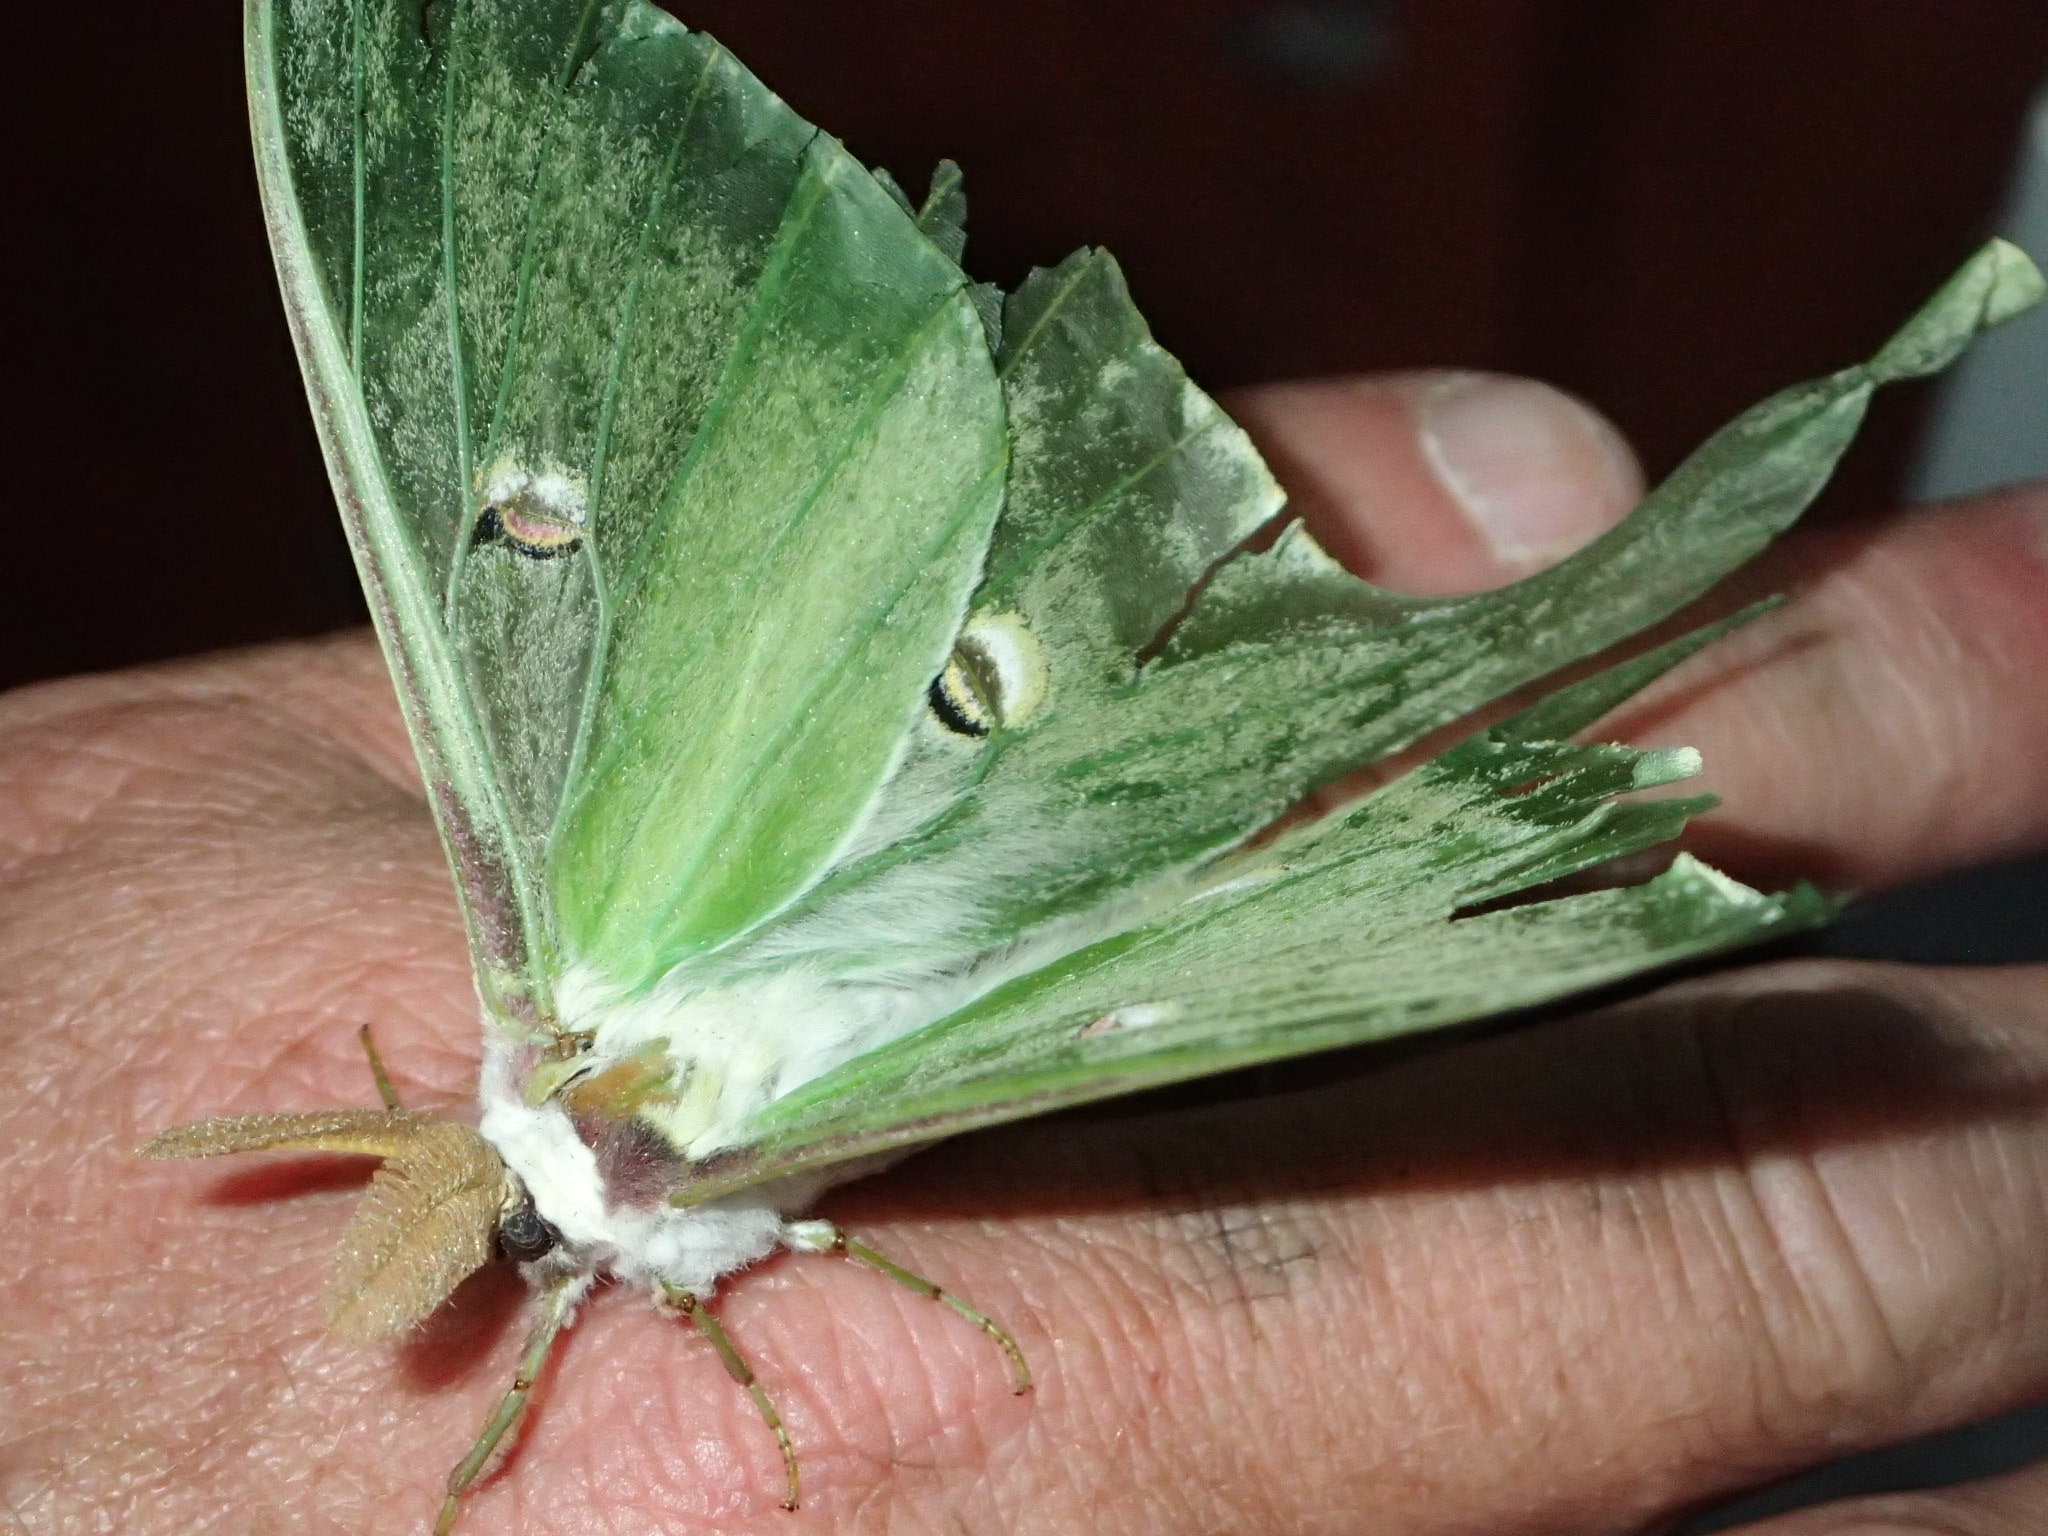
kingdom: Animalia
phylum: Arthropoda
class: Insecta
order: Lepidoptera
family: Saturniidae
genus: Actias
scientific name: Actias luna
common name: Luna moth
